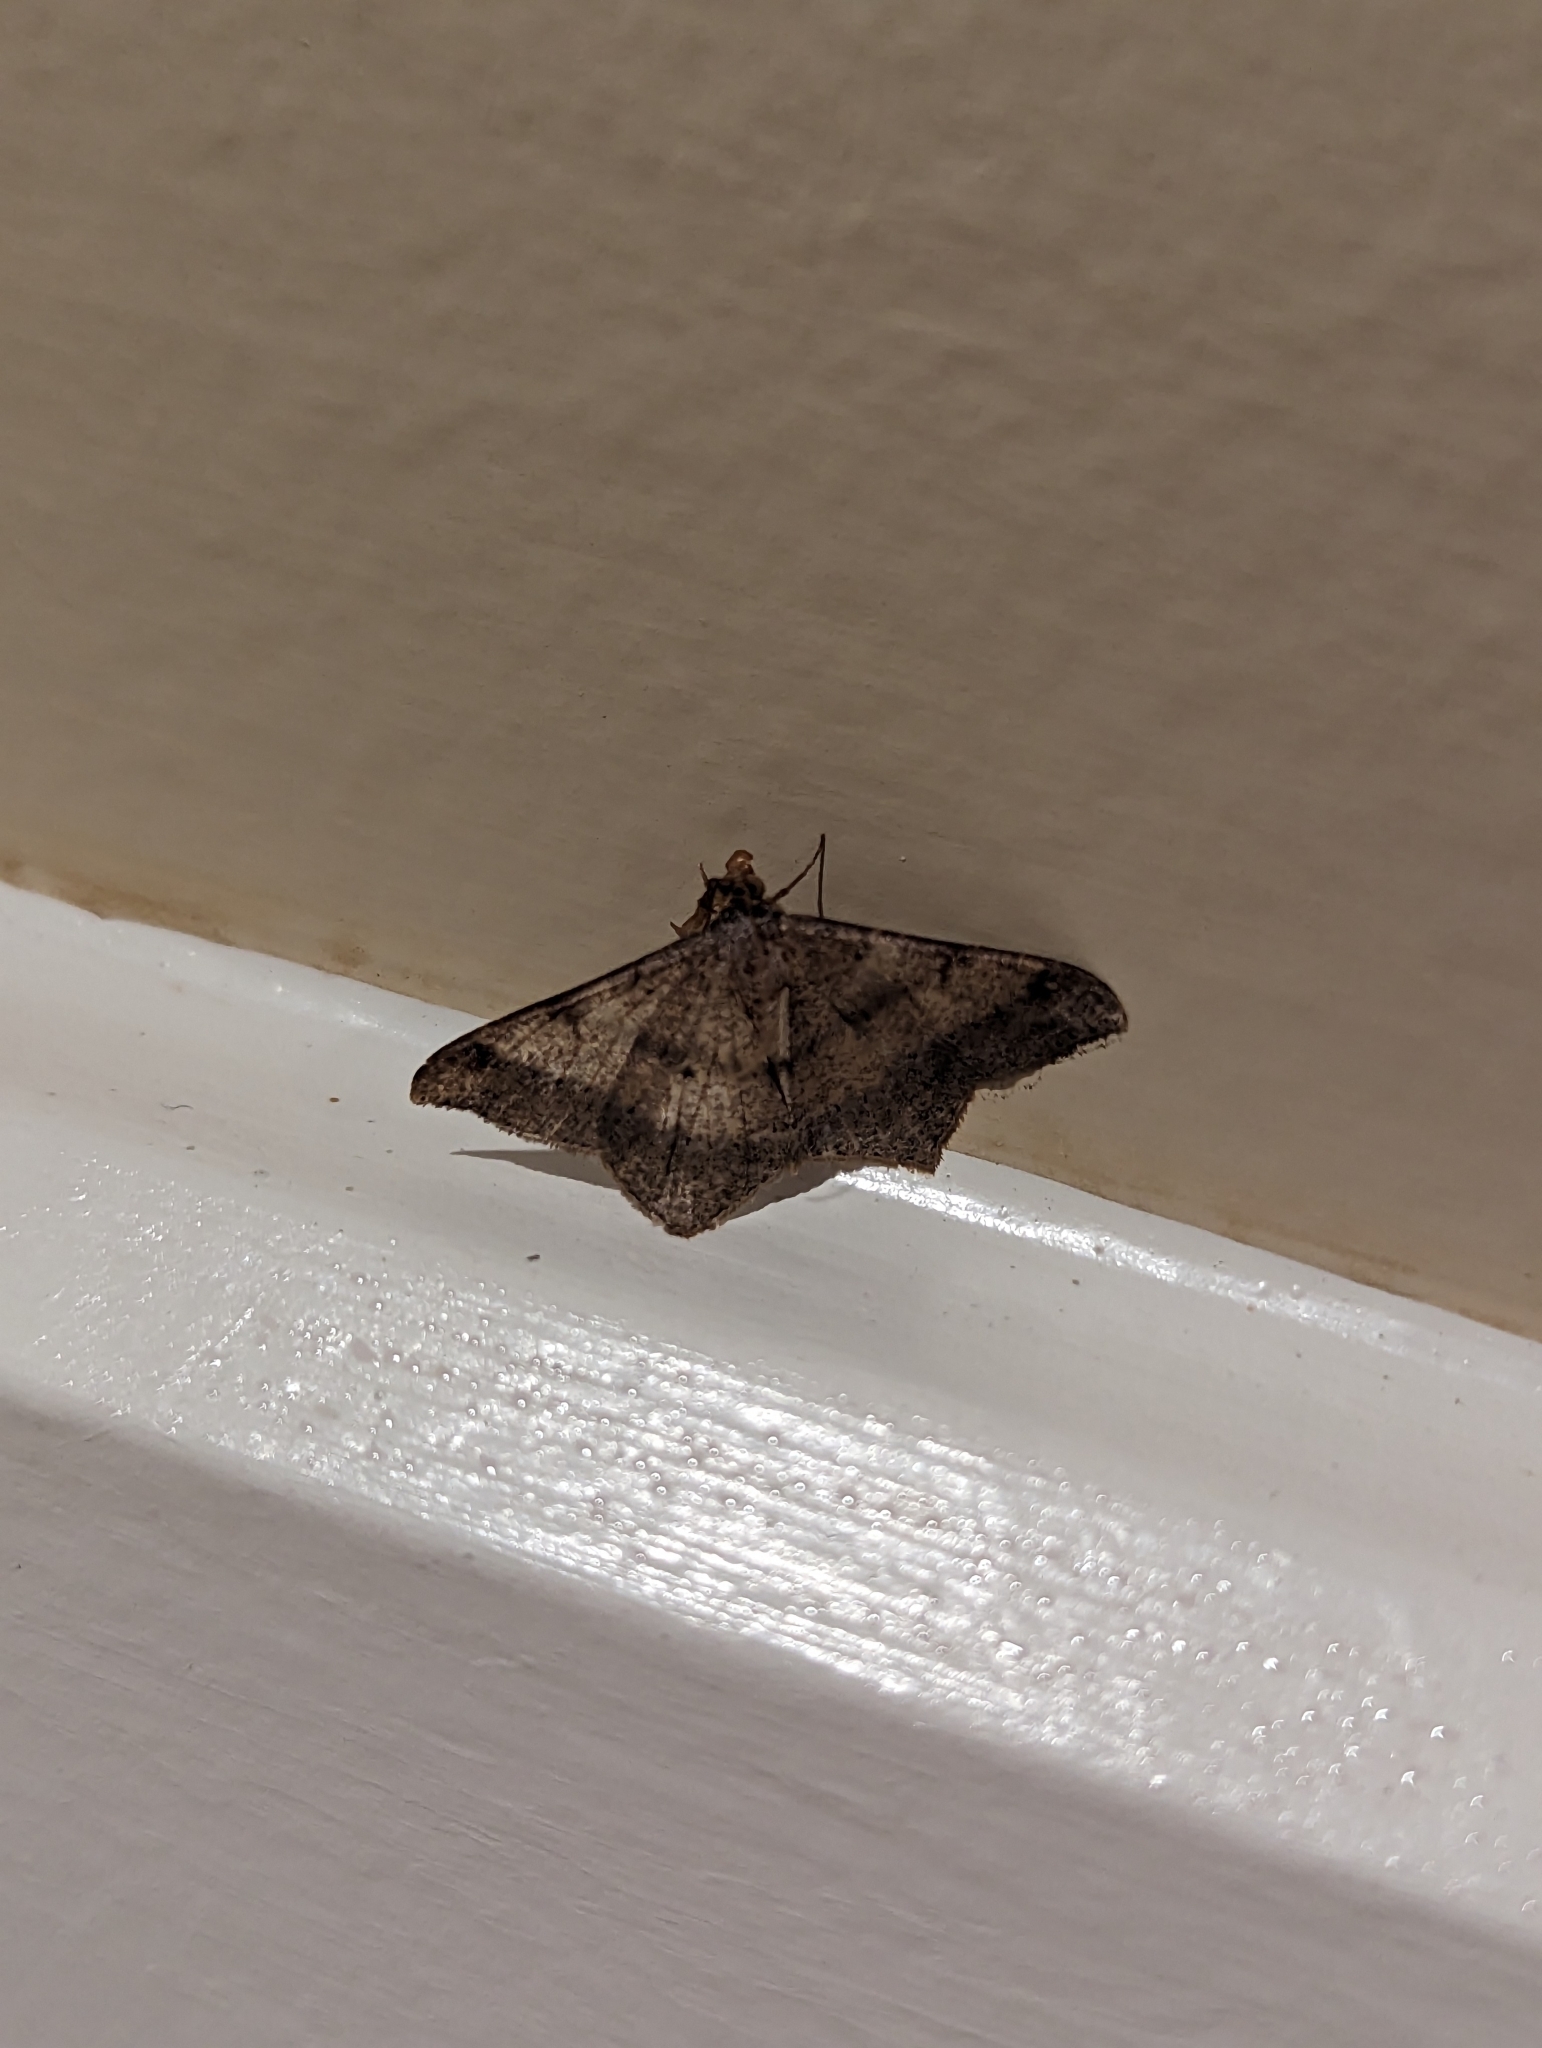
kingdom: Animalia
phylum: Arthropoda
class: Insecta
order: Lepidoptera
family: Geometridae
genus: Macaria
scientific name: Macaria abydata
